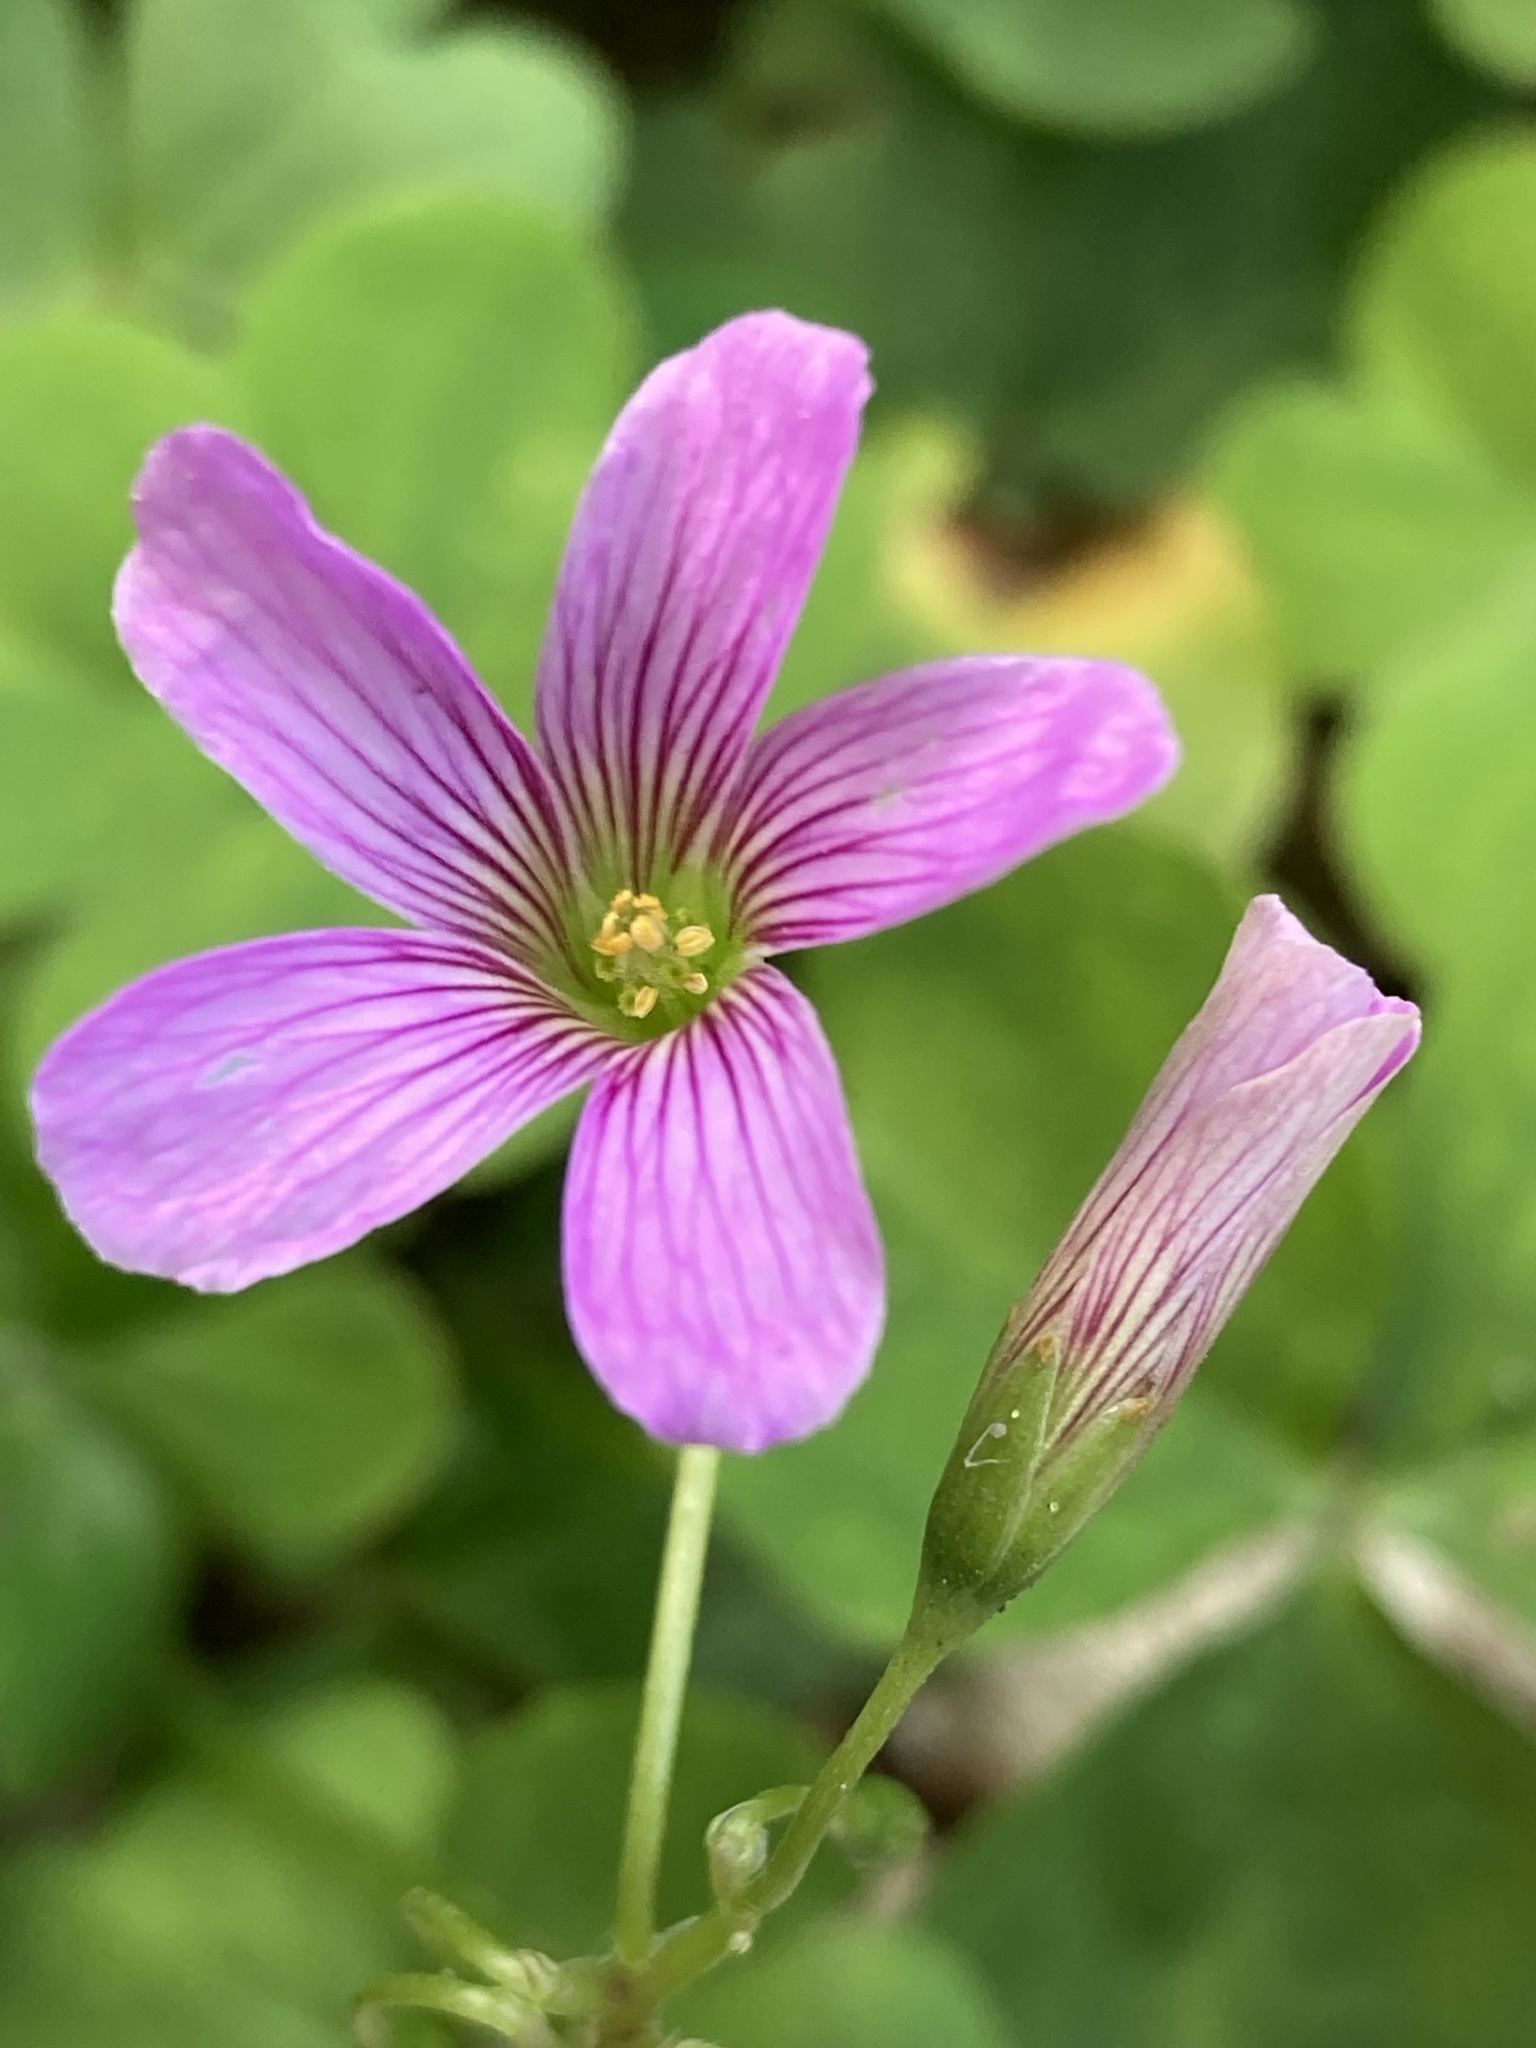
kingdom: Plantae
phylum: Tracheophyta
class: Magnoliopsida
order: Oxalidales
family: Oxalidaceae
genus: Oxalis
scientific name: Oxalis debilis
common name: Large-flowered pink-sorrel
